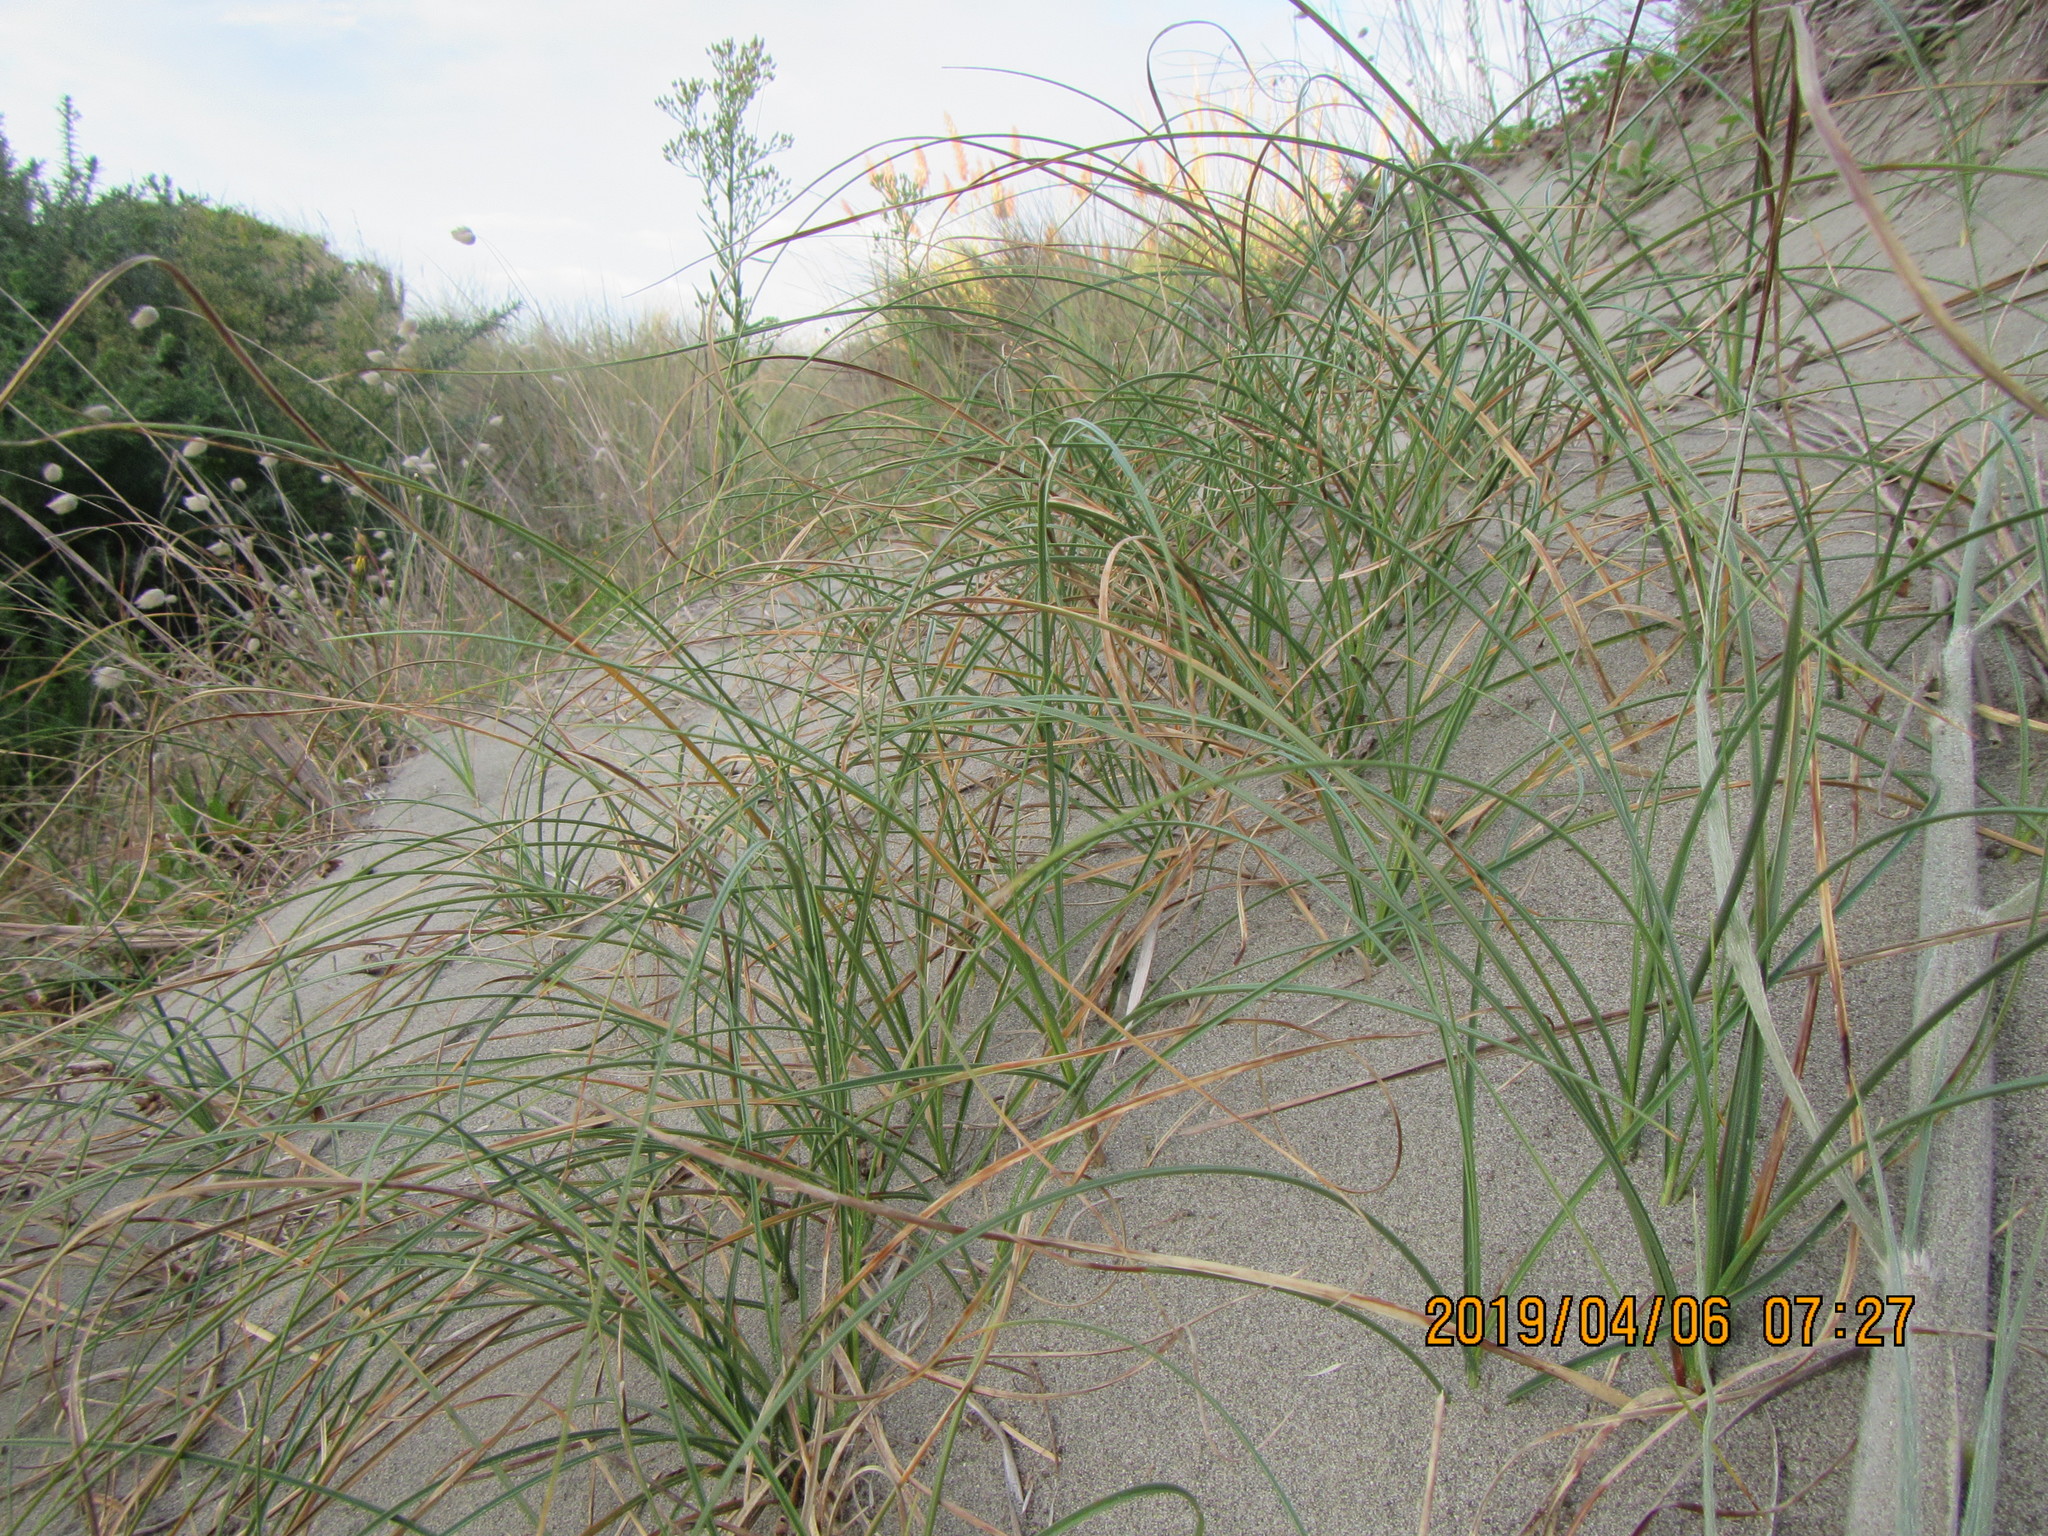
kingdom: Plantae
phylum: Tracheophyta
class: Liliopsida
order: Poales
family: Cyperaceae
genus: Carex
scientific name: Carex pumila
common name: Dwarf sedge
